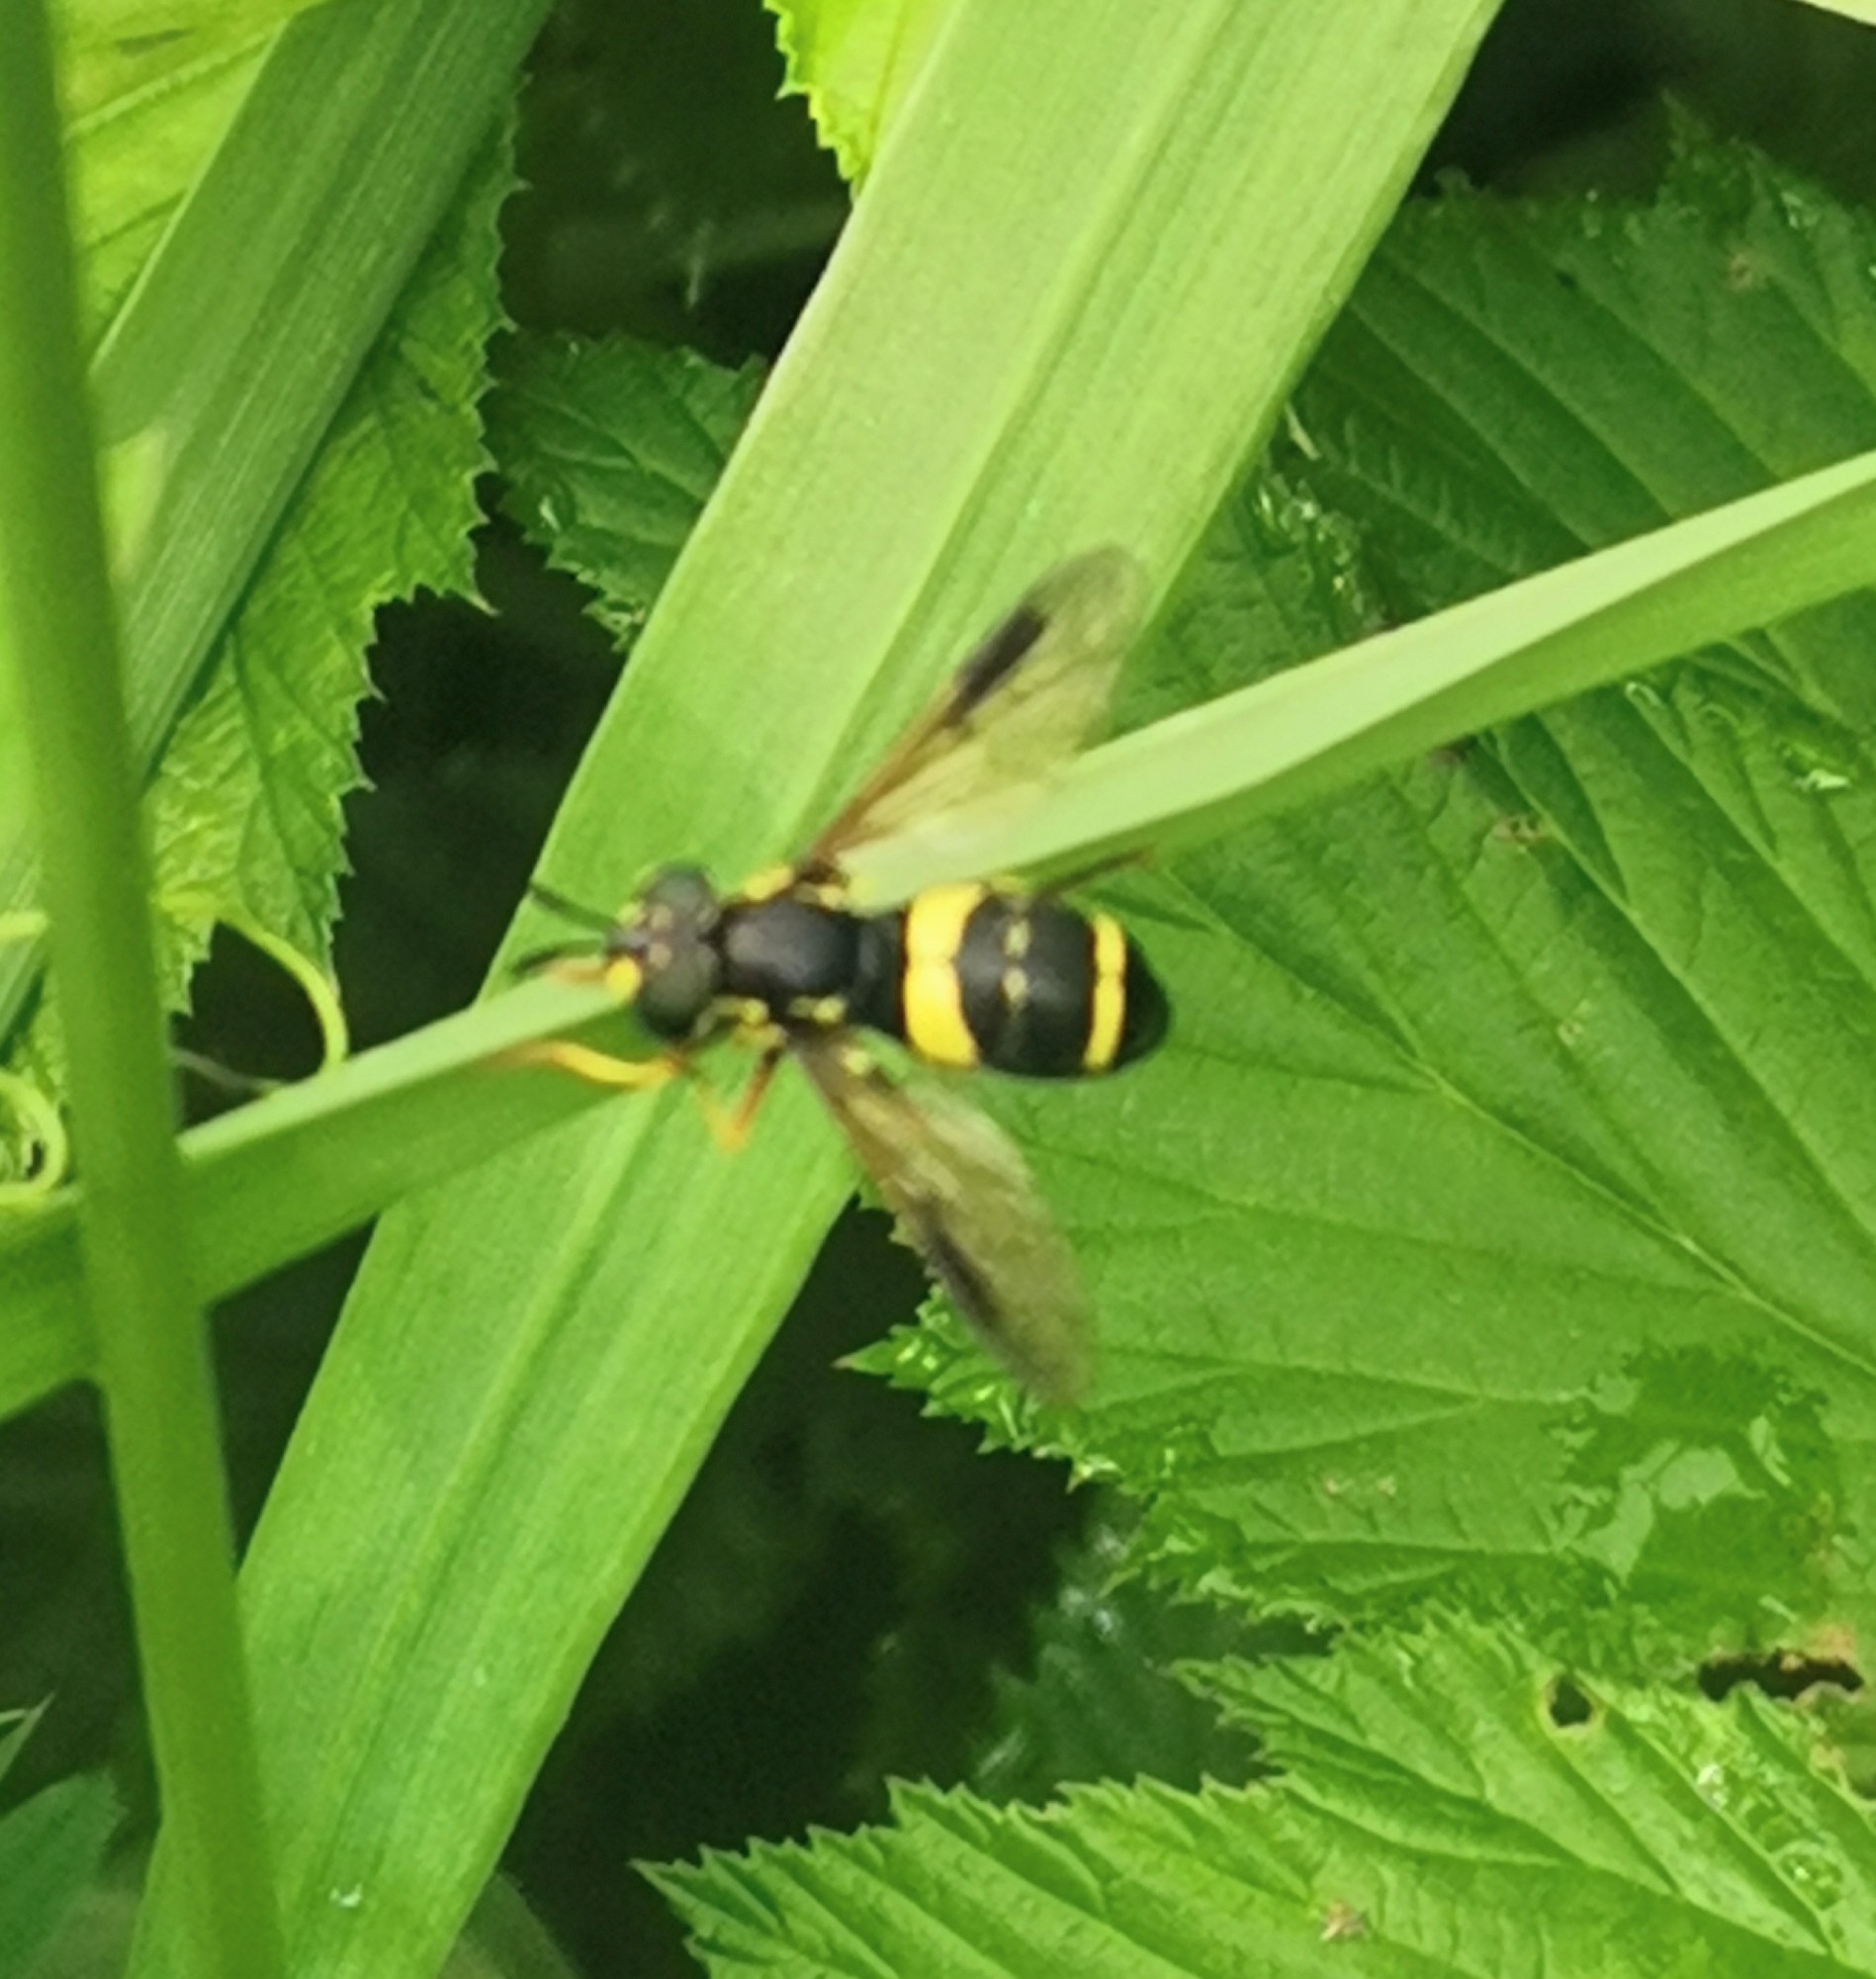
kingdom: Animalia
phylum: Arthropoda
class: Insecta
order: Diptera
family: Syrphidae
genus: Chrysotoxum
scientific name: Chrysotoxum bicincta
